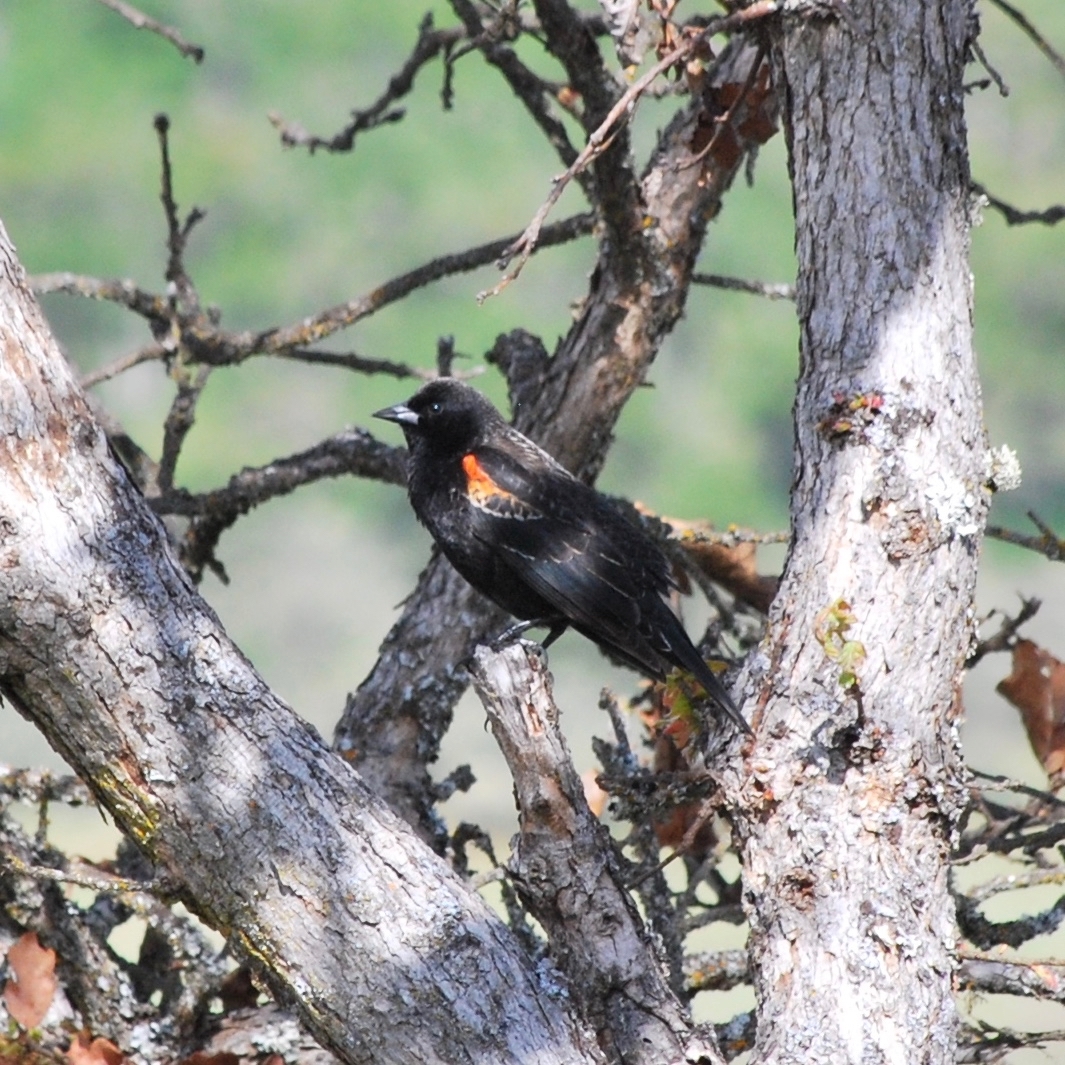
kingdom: Animalia
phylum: Chordata
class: Aves
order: Passeriformes
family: Icteridae
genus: Agelaius
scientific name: Agelaius phoeniceus
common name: Red-winged blackbird
